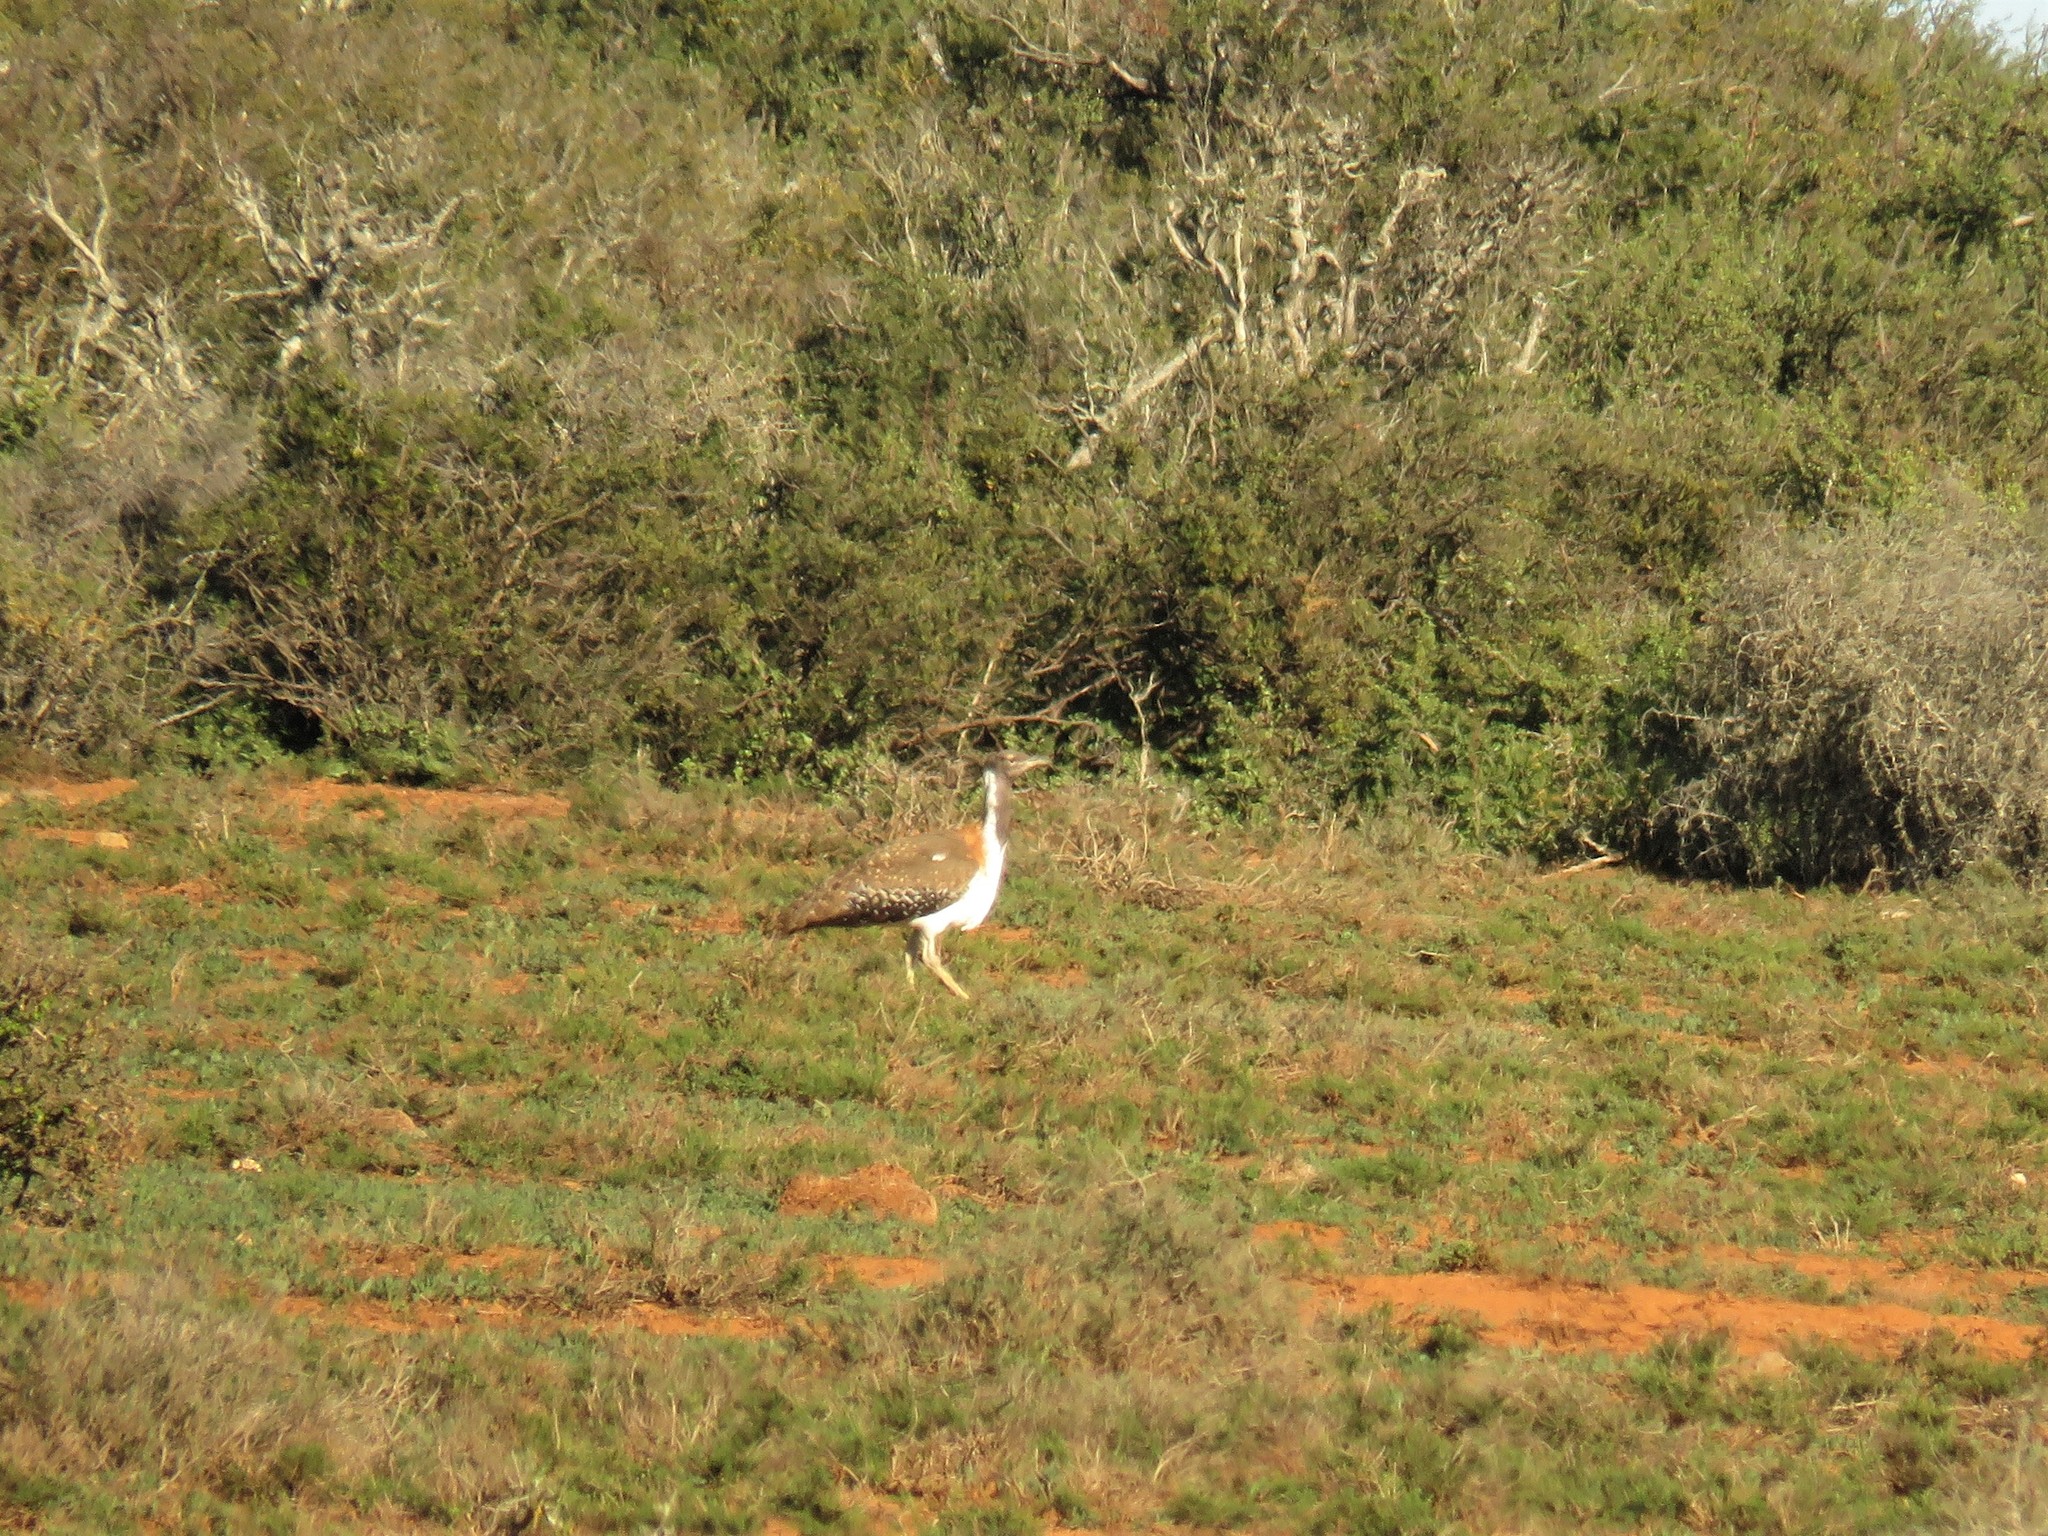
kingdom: Animalia
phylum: Chordata
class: Aves
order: Otidiformes
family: Otididae
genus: Neotis
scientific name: Neotis ludwigii
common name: Ludwig's bustard
